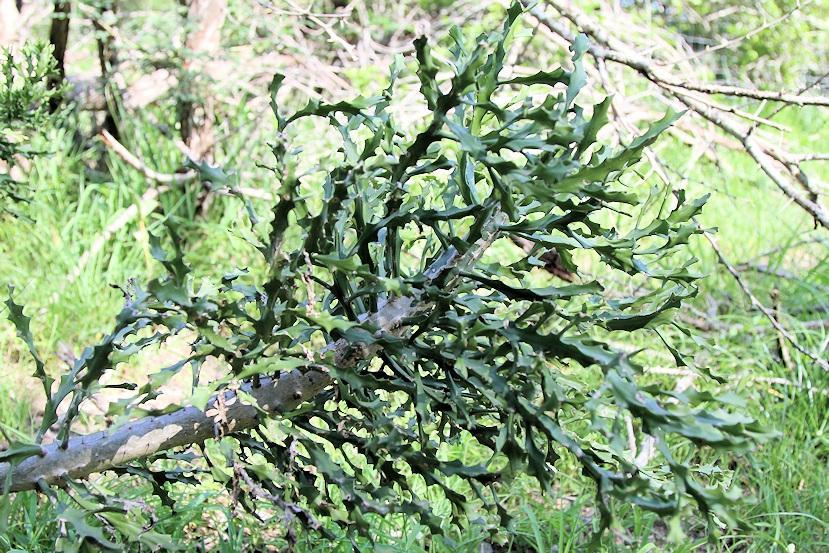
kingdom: Plantae
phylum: Tracheophyta
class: Magnoliopsida
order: Malpighiales
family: Euphorbiaceae
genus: Euphorbia
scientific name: Euphorbia grandidens
